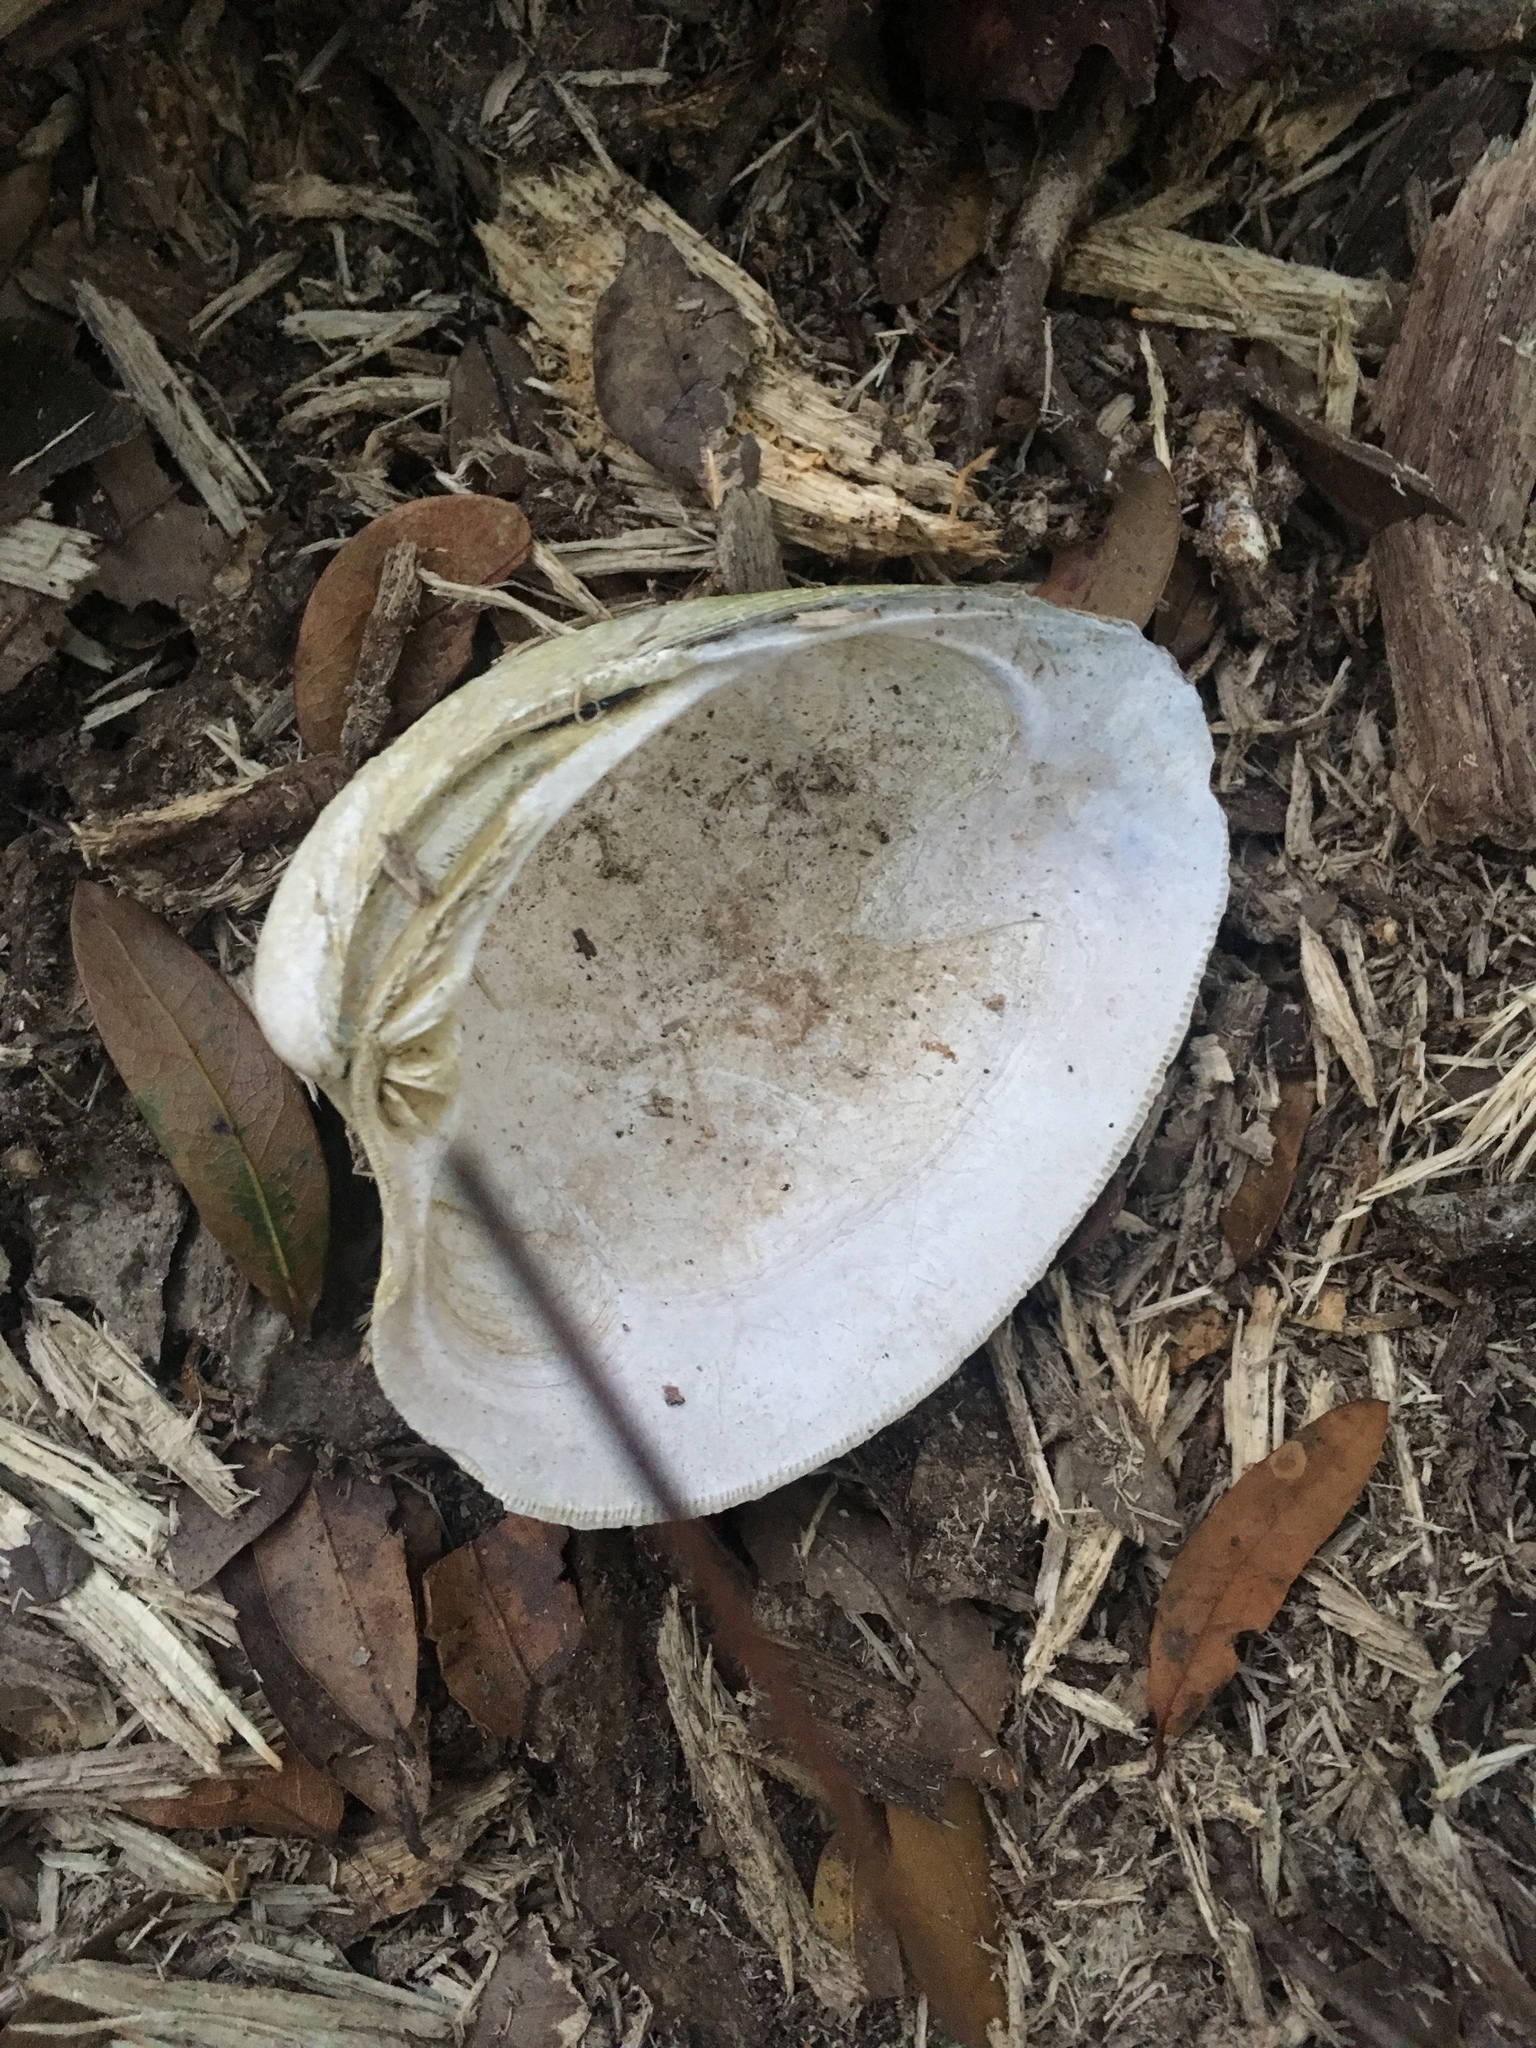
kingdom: Animalia
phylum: Mollusca
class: Bivalvia
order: Venerida
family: Veneridae
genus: Mercenaria
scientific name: Mercenaria campechiensis
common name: Südliche quahog-muschel
